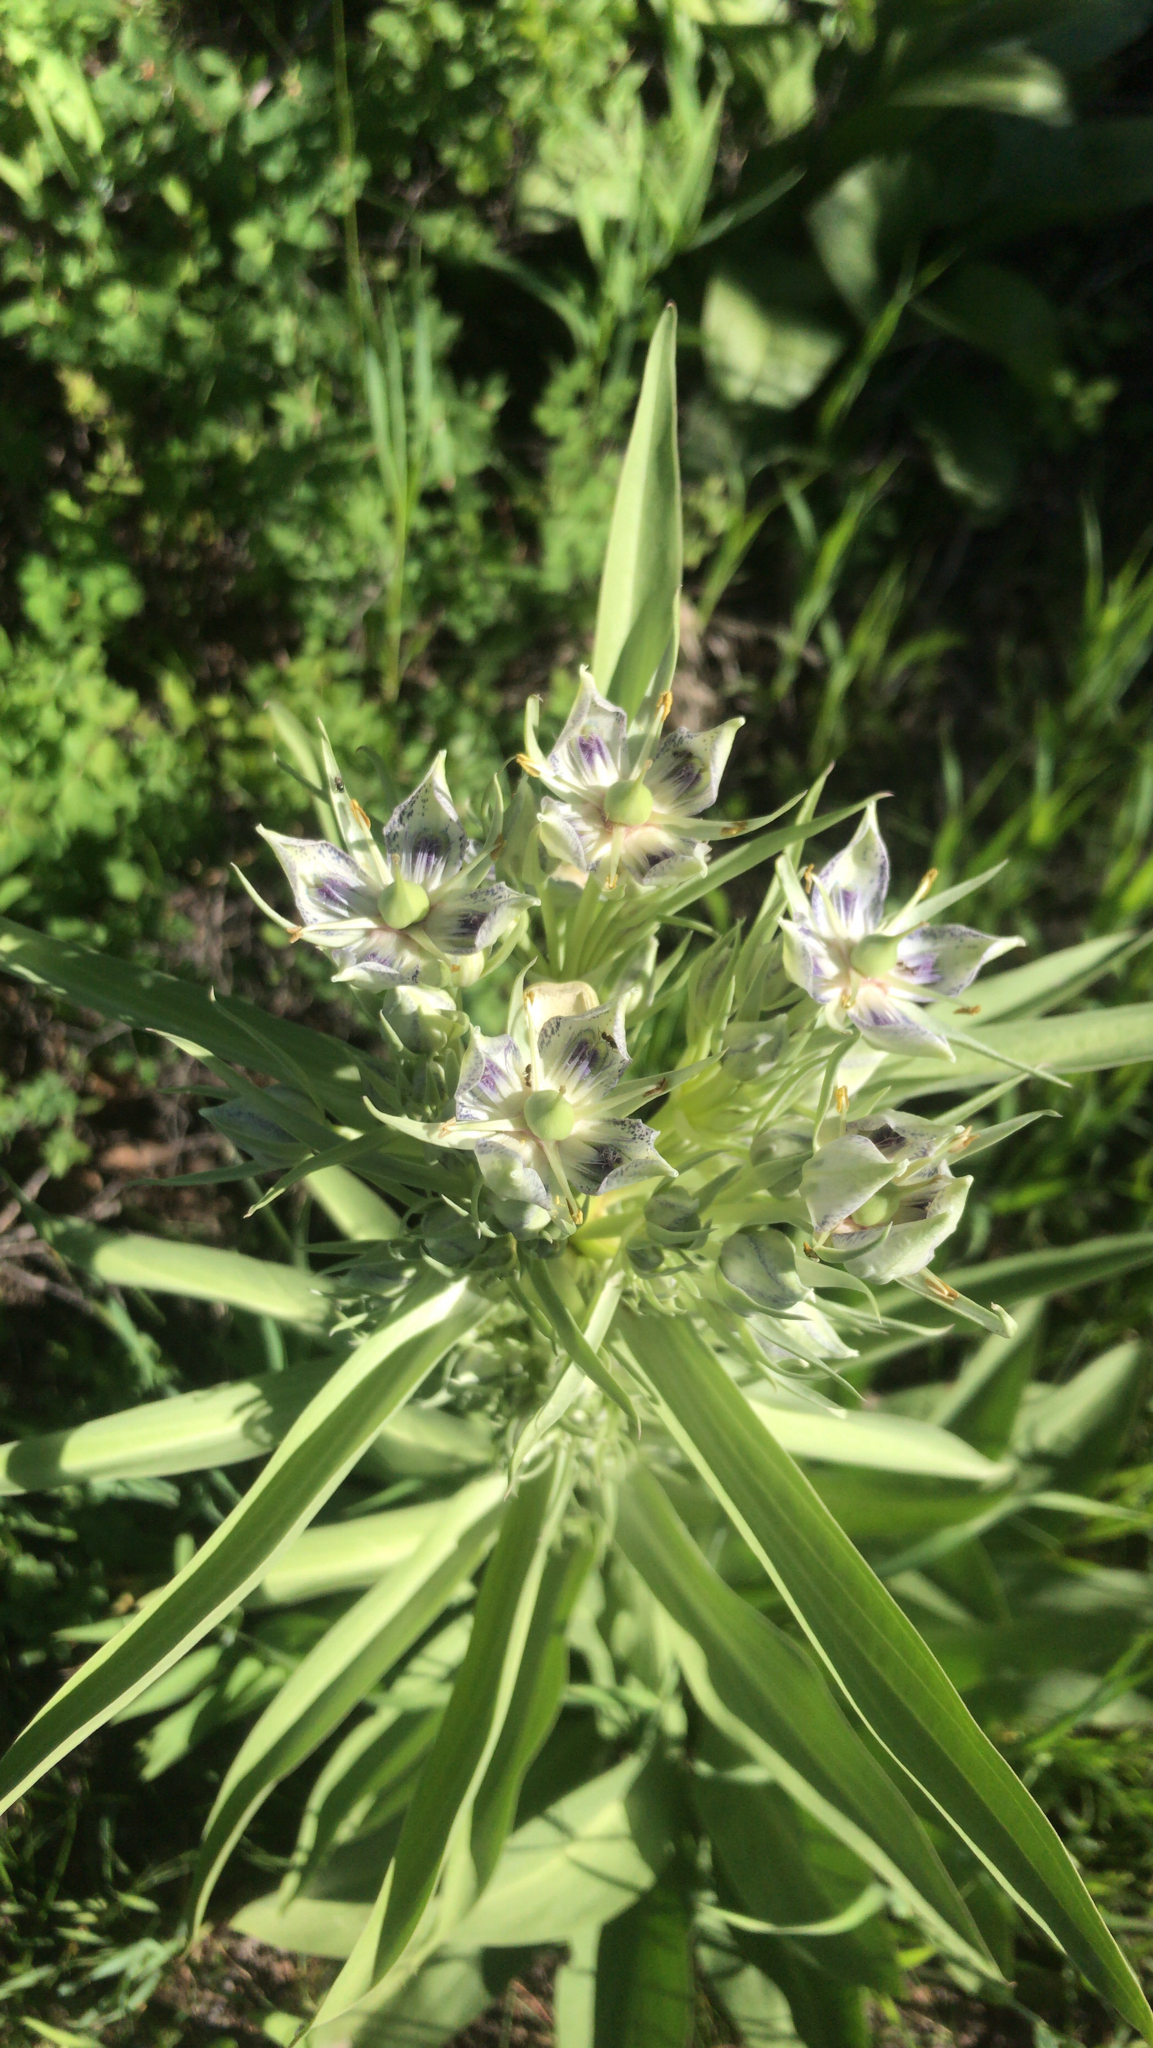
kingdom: Plantae
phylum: Tracheophyta
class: Magnoliopsida
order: Gentianales
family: Gentianaceae
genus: Frasera
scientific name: Frasera speciosa
